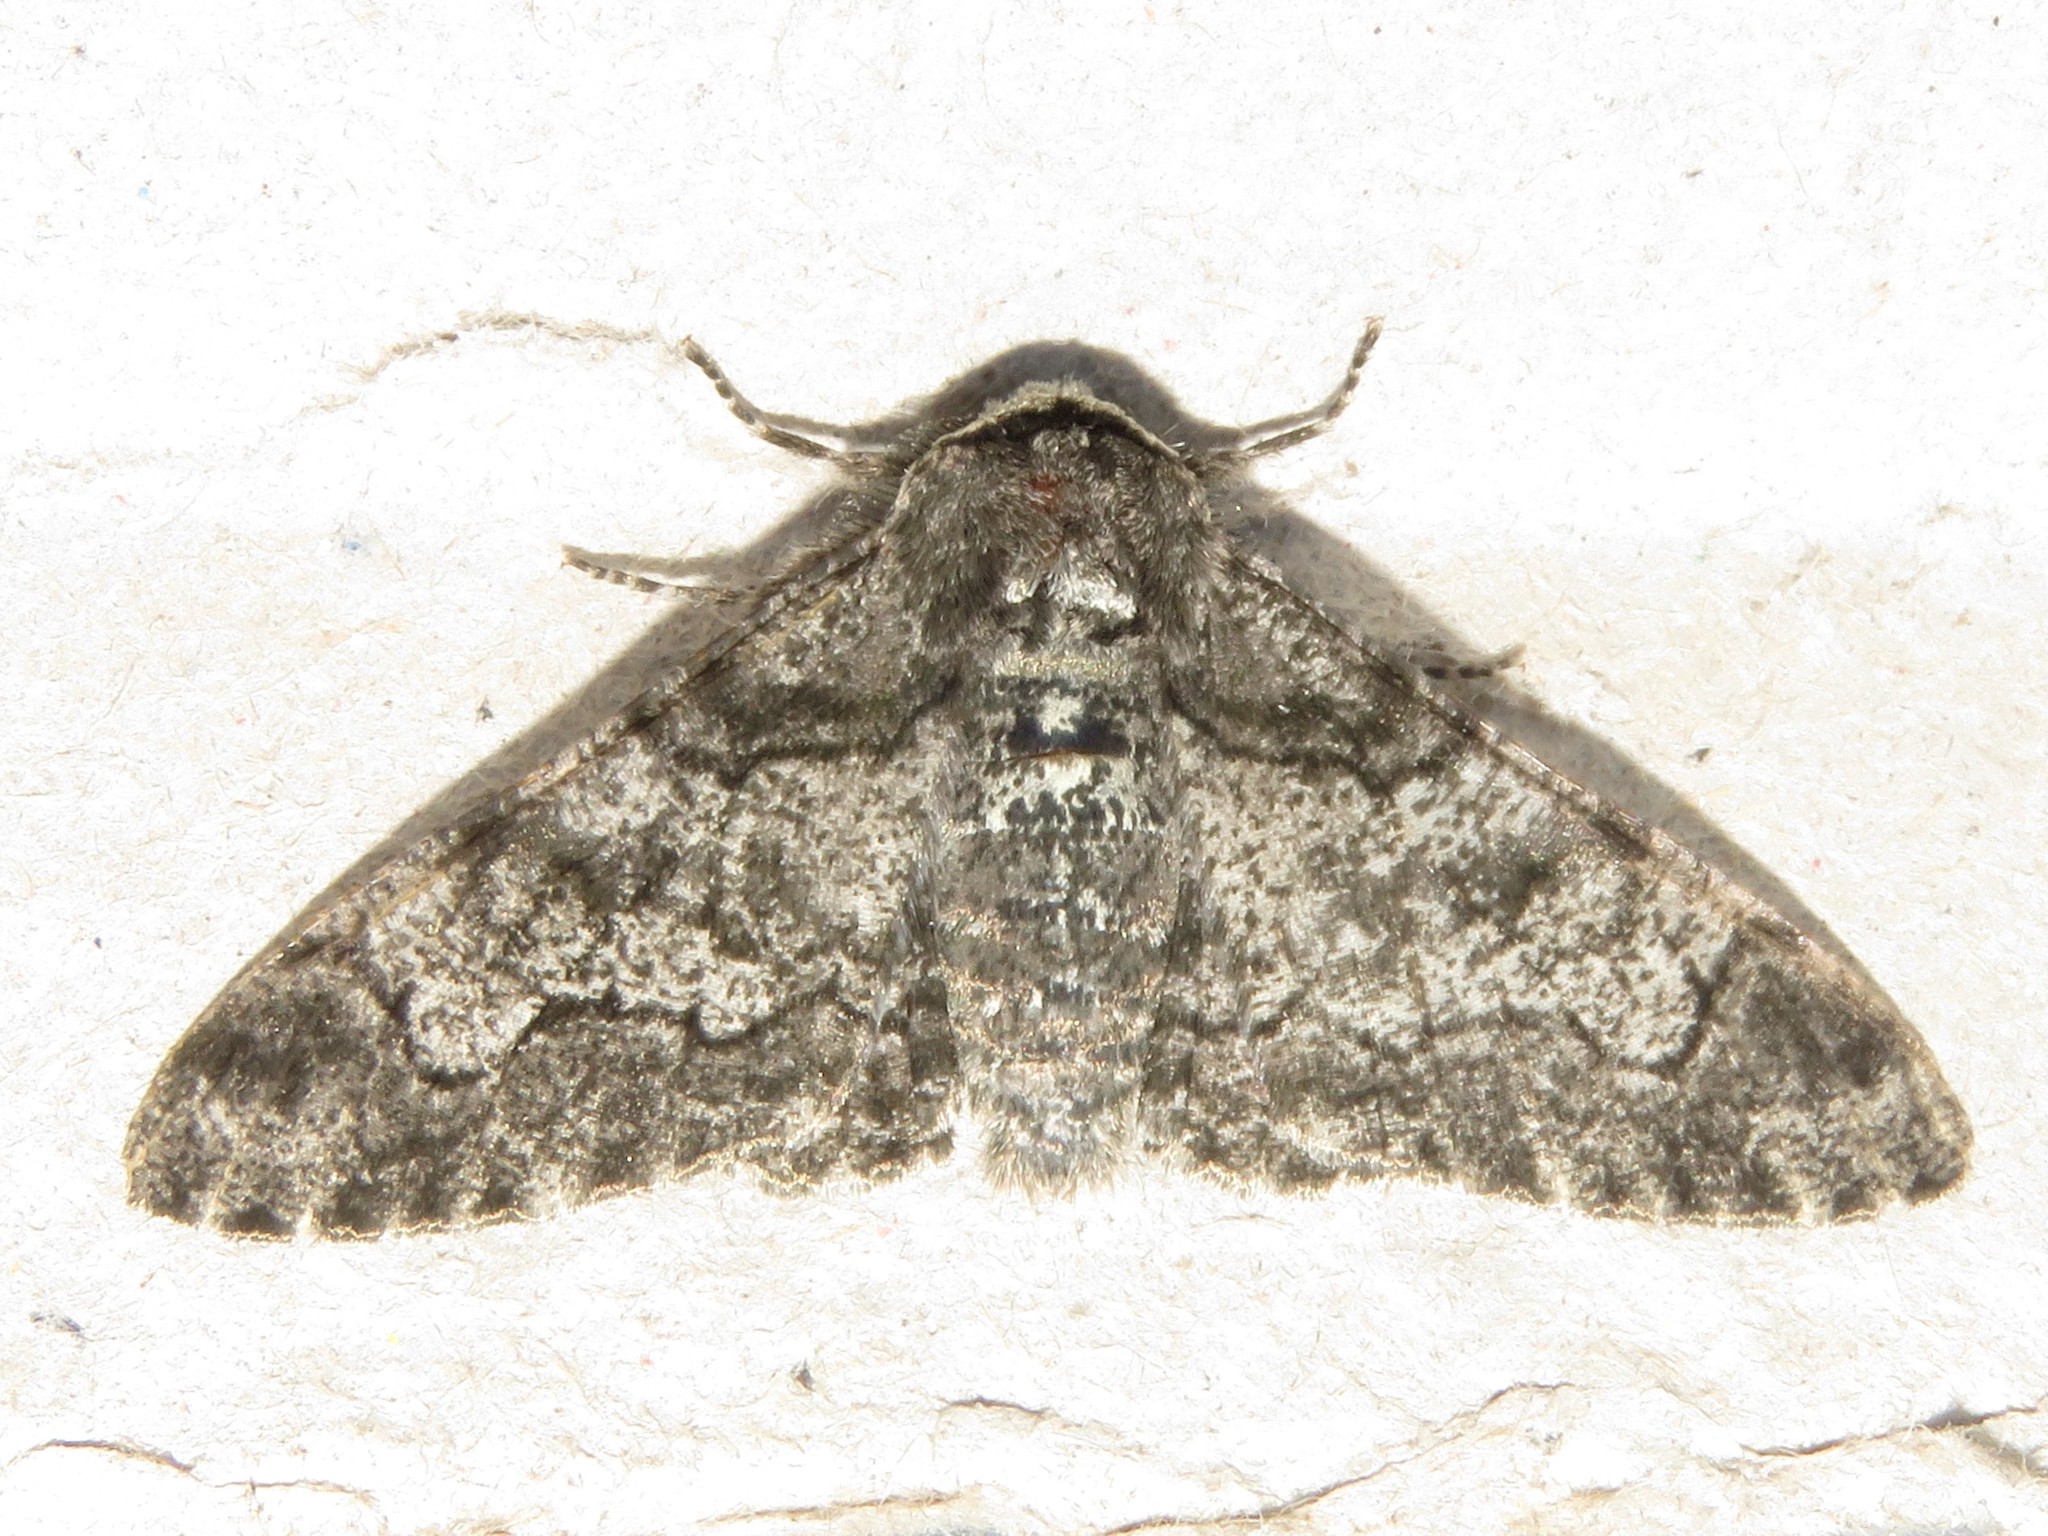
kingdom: Animalia
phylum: Arthropoda
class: Insecta
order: Lepidoptera
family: Geometridae
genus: Biston
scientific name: Biston betularia
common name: Peppered moth
